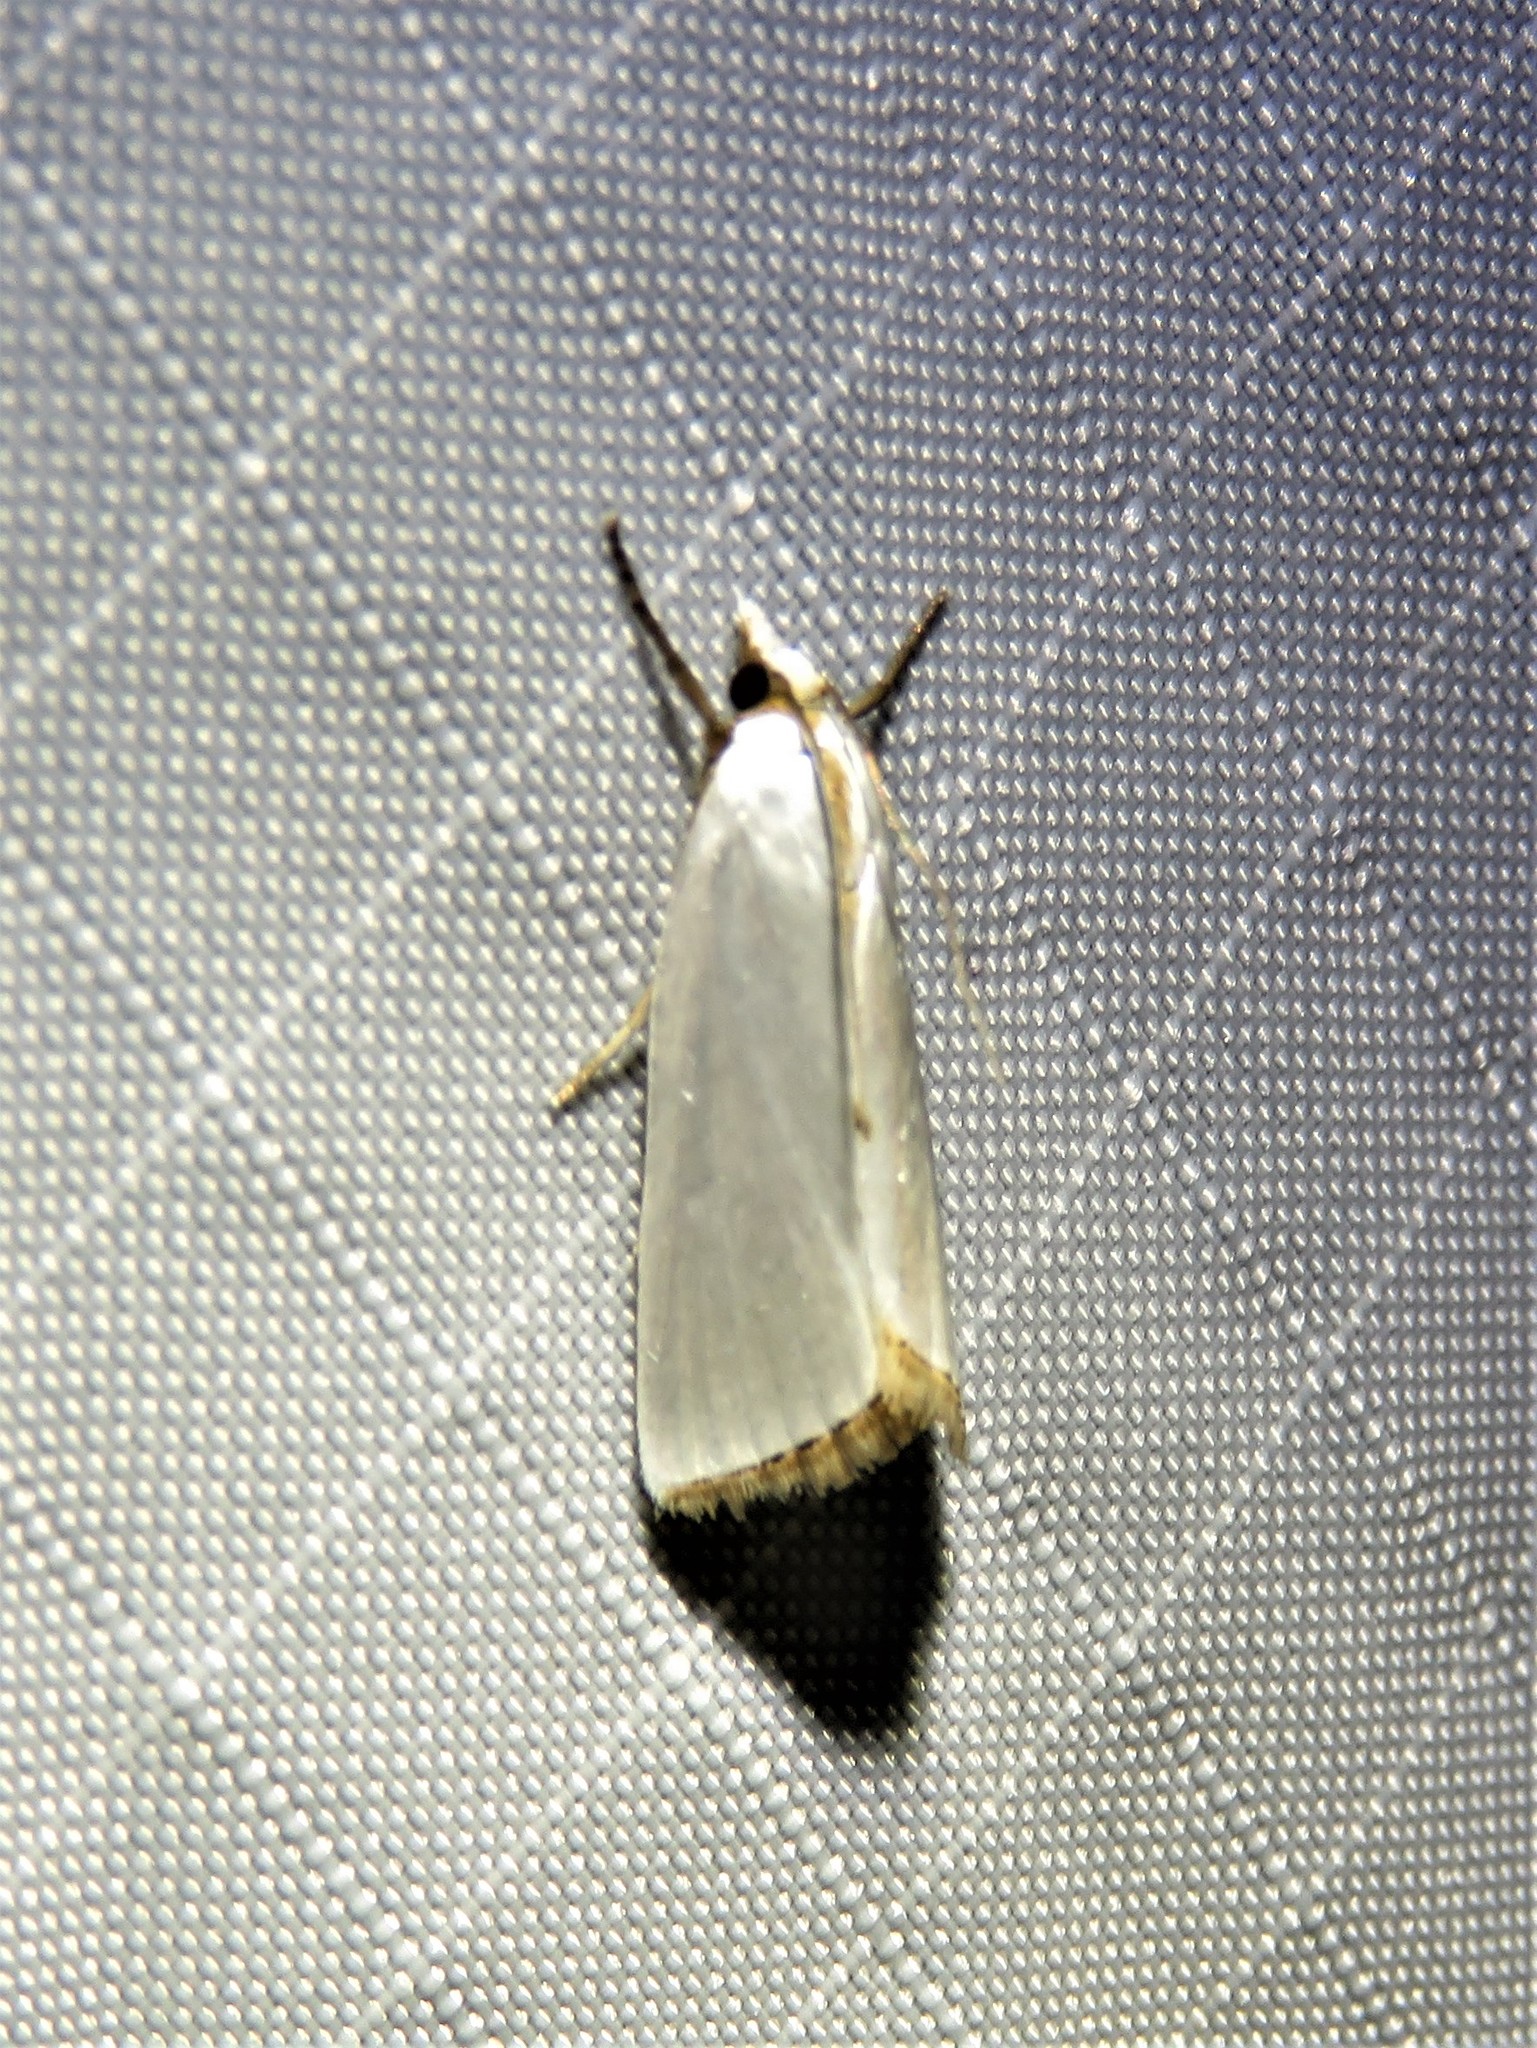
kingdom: Animalia
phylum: Arthropoda
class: Insecta
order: Lepidoptera
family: Crambidae
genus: Argyria
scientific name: Argyria nivalis
